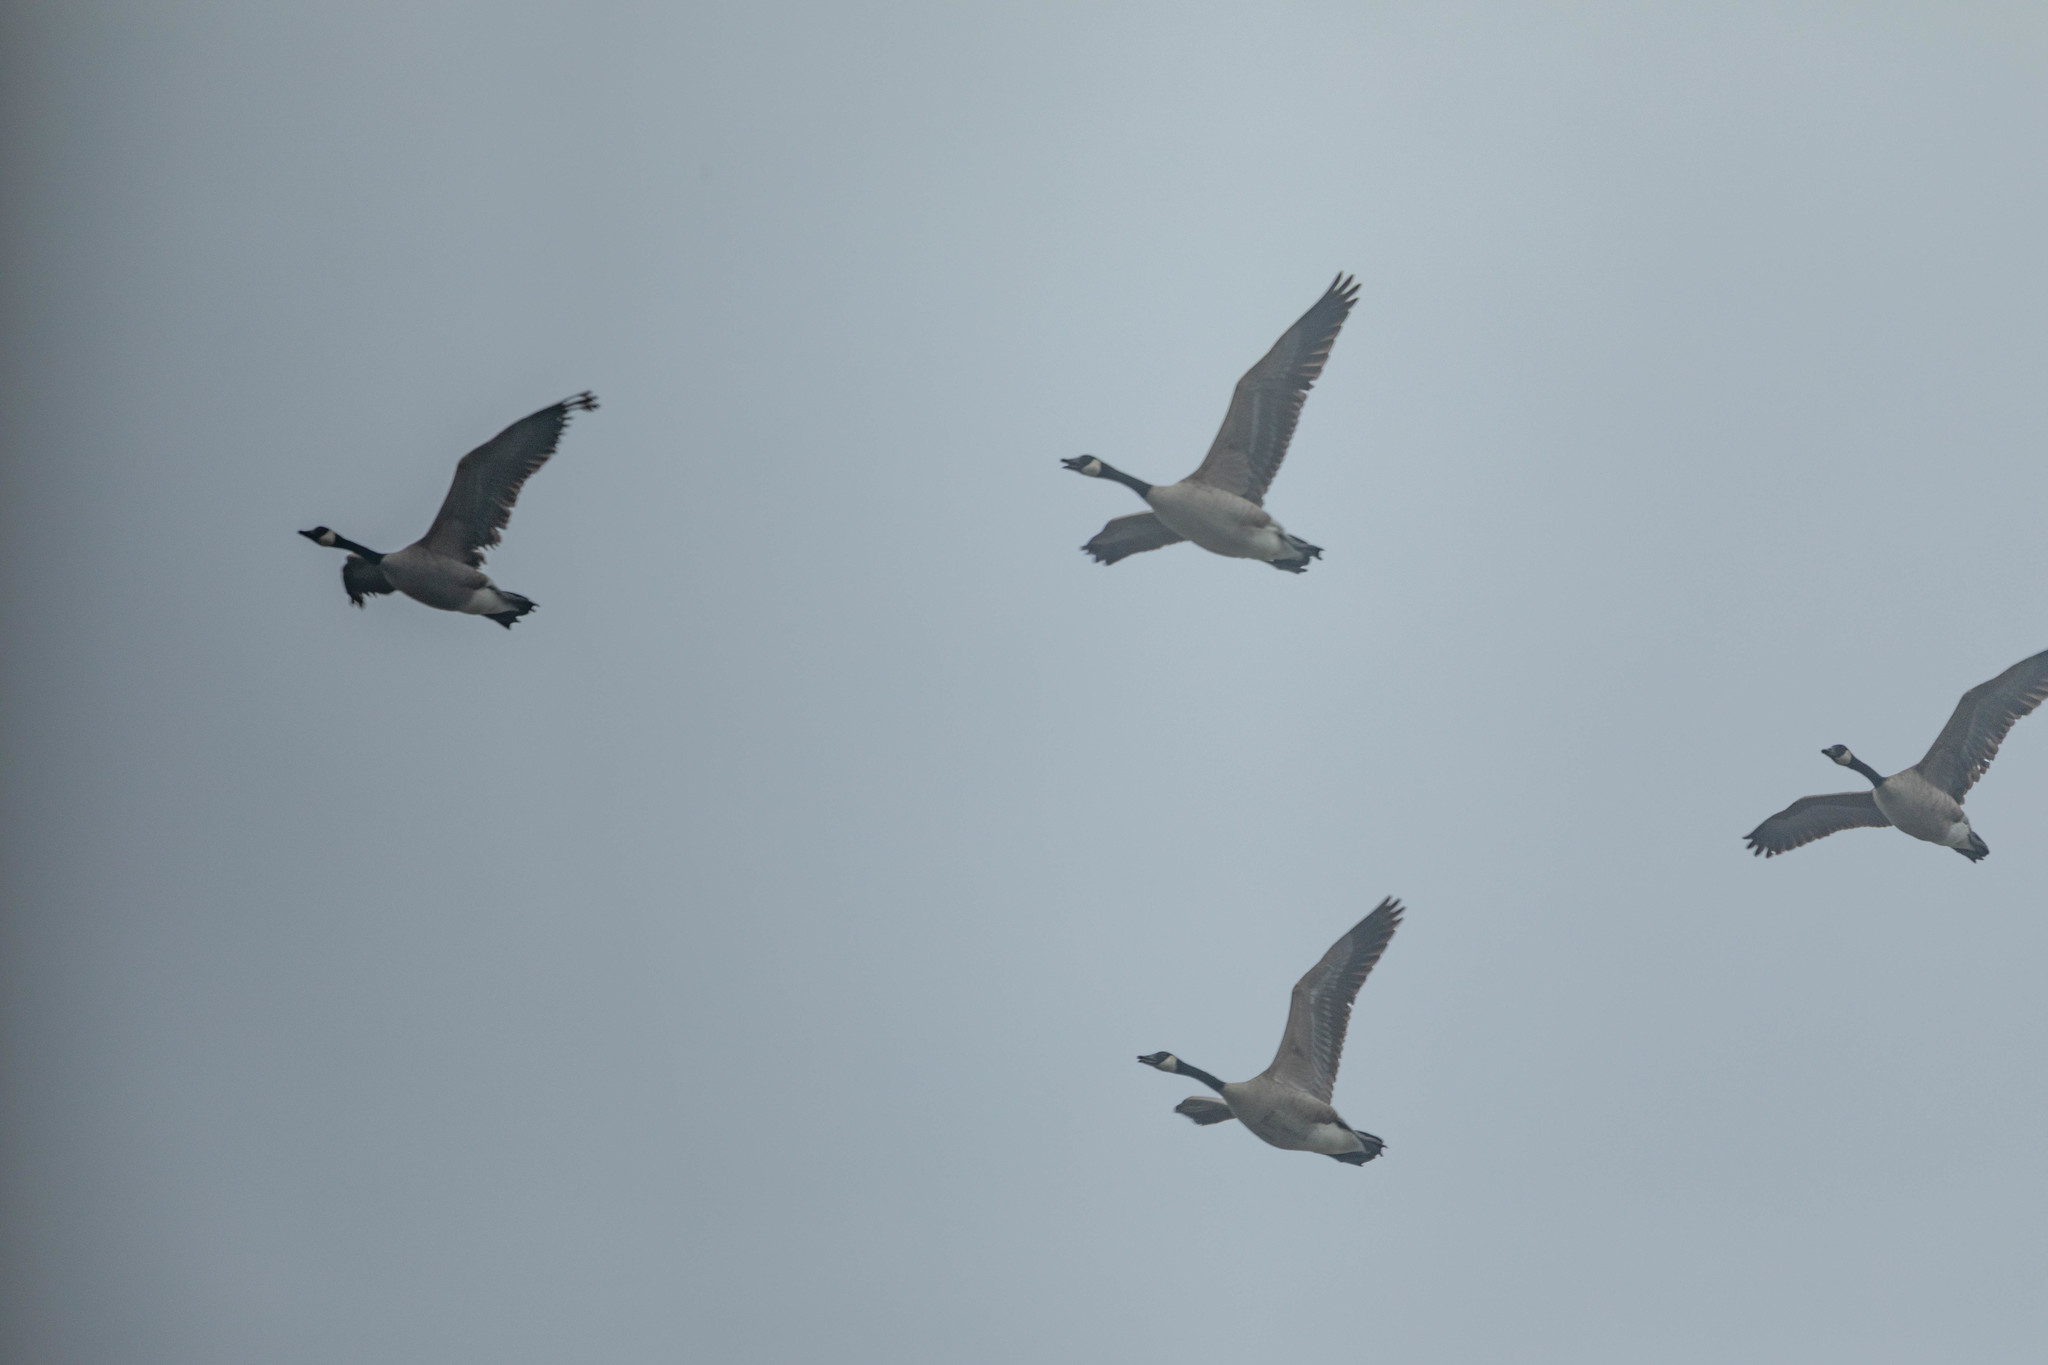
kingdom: Animalia
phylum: Chordata
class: Aves
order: Anseriformes
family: Anatidae
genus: Branta
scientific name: Branta canadensis
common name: Canada goose
